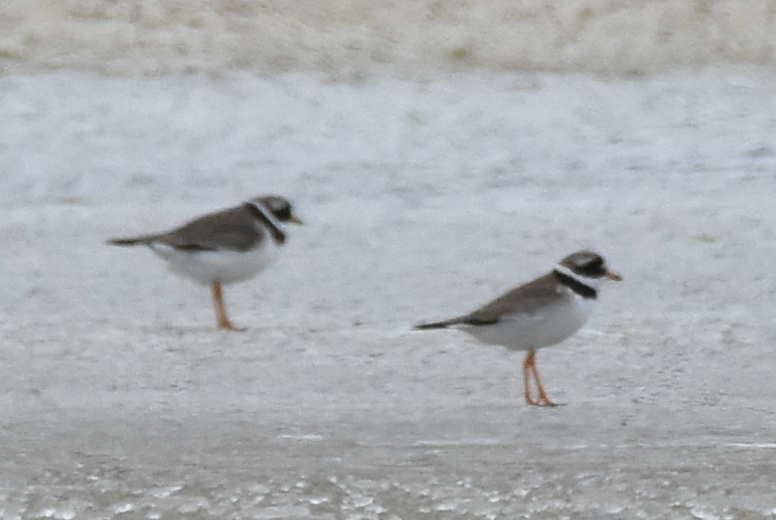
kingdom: Animalia
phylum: Chordata
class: Aves
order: Charadriiformes
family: Charadriidae
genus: Charadrius
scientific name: Charadrius hiaticula
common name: Common ringed plover
